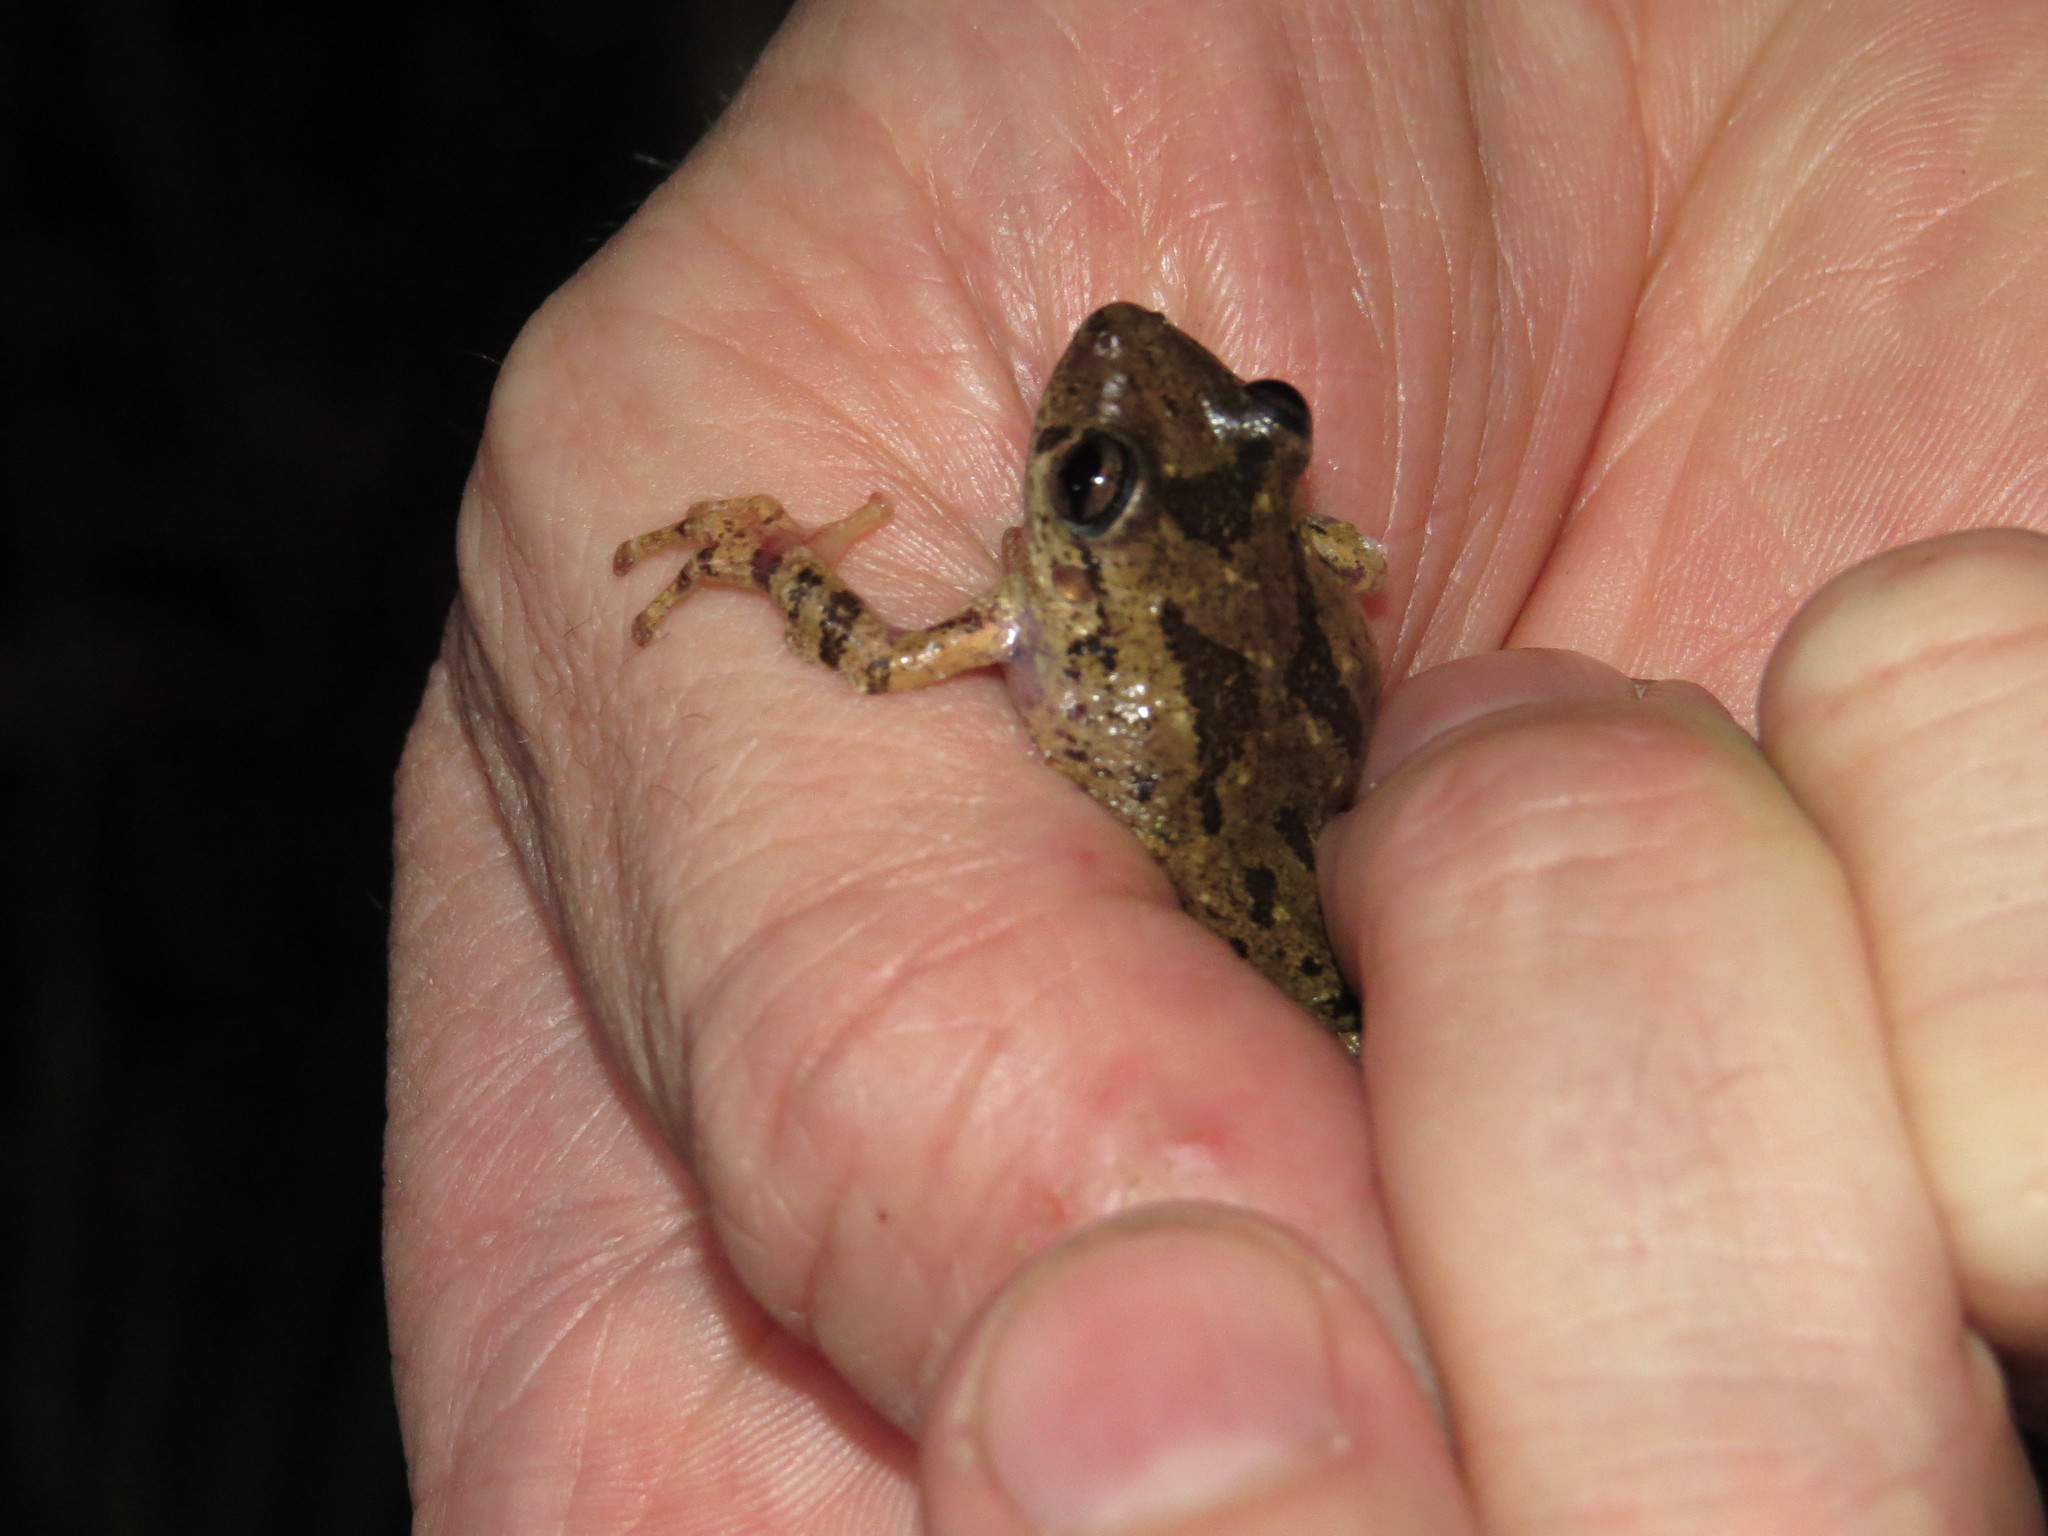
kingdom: Animalia
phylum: Chordata
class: Amphibia
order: Anura
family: Hylidae
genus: Scinax
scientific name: Scinax granulatus
